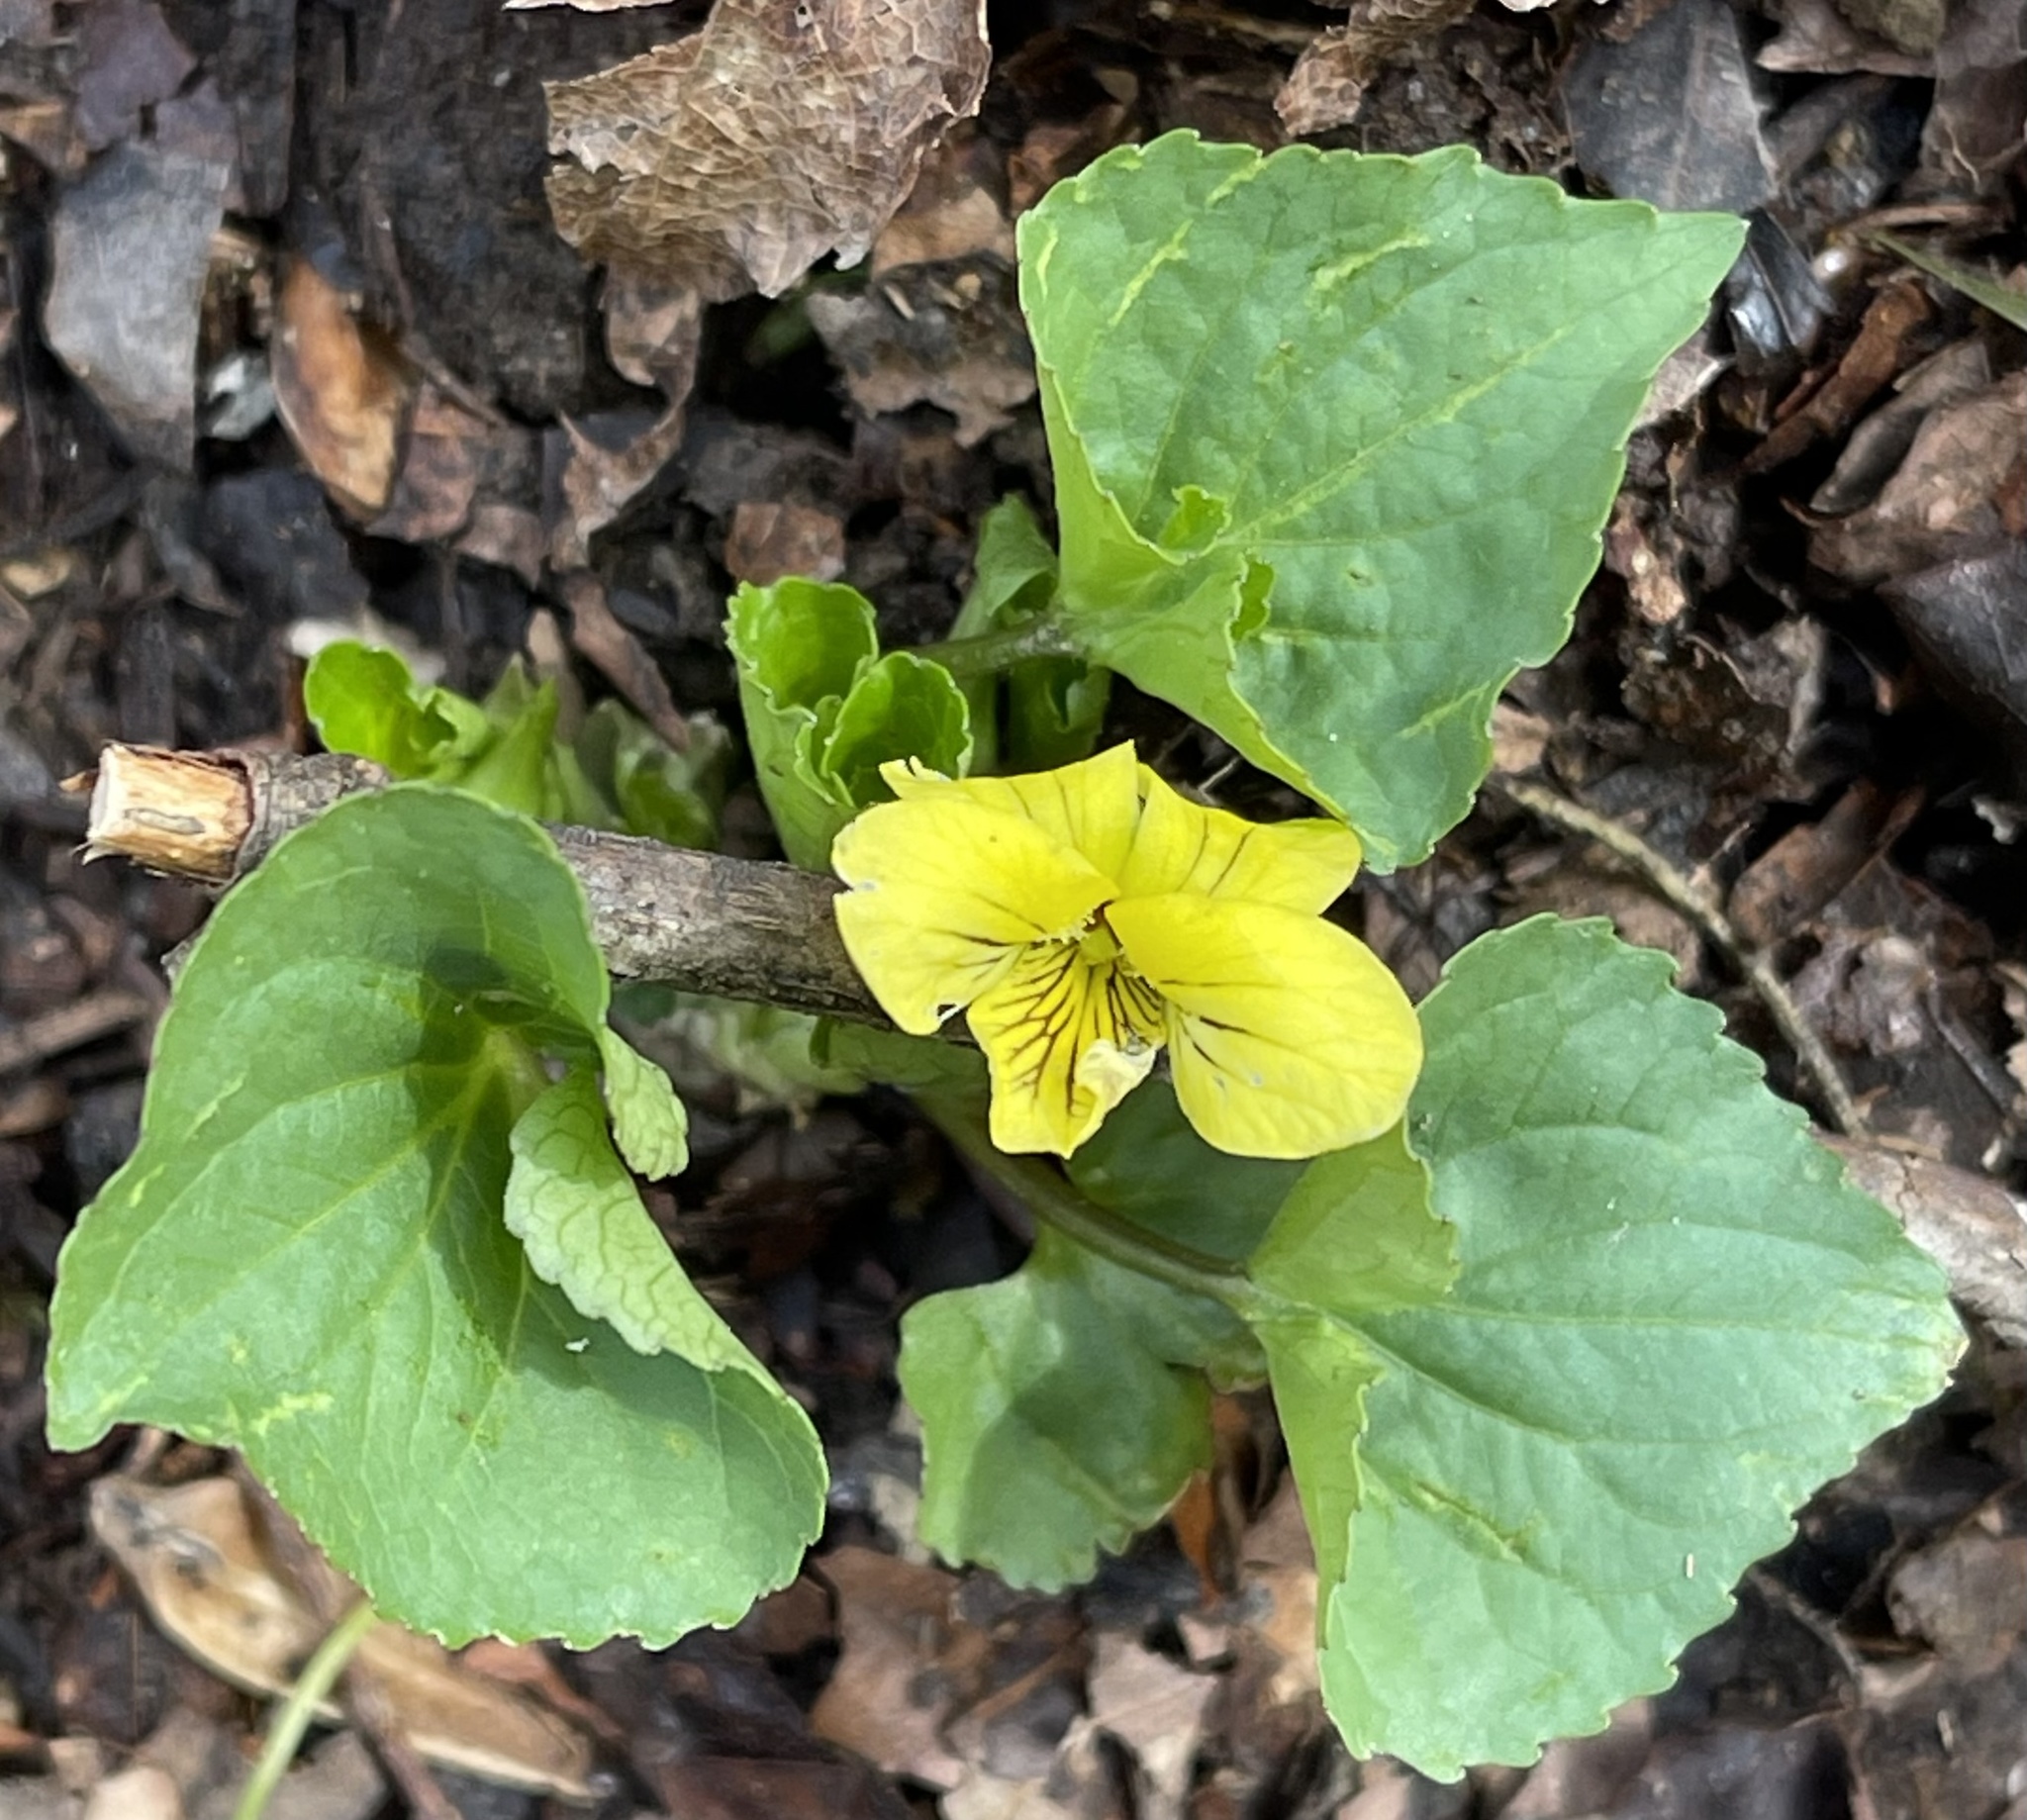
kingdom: Plantae
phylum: Tracheophyta
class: Magnoliopsida
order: Malpighiales
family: Violaceae
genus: Viola
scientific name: Viola eriocarpa
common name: Smooth yellow violet
